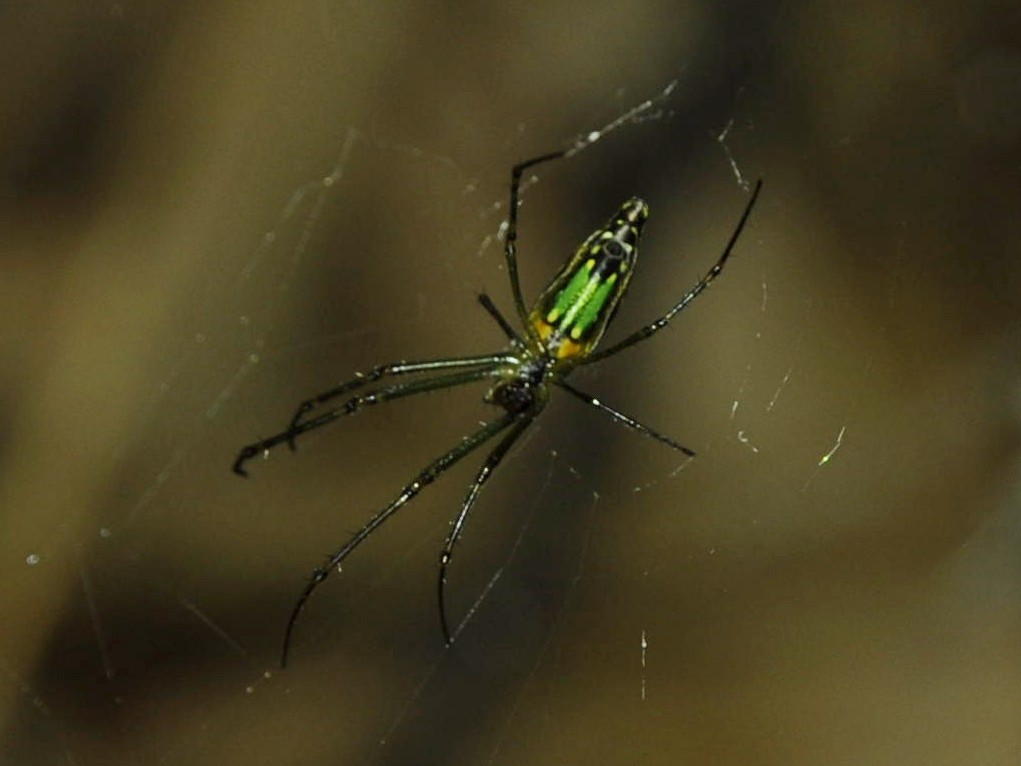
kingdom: Animalia
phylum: Arthropoda
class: Arachnida
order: Araneae
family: Tetragnathidae
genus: Leucauge
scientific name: Leucauge decorata
